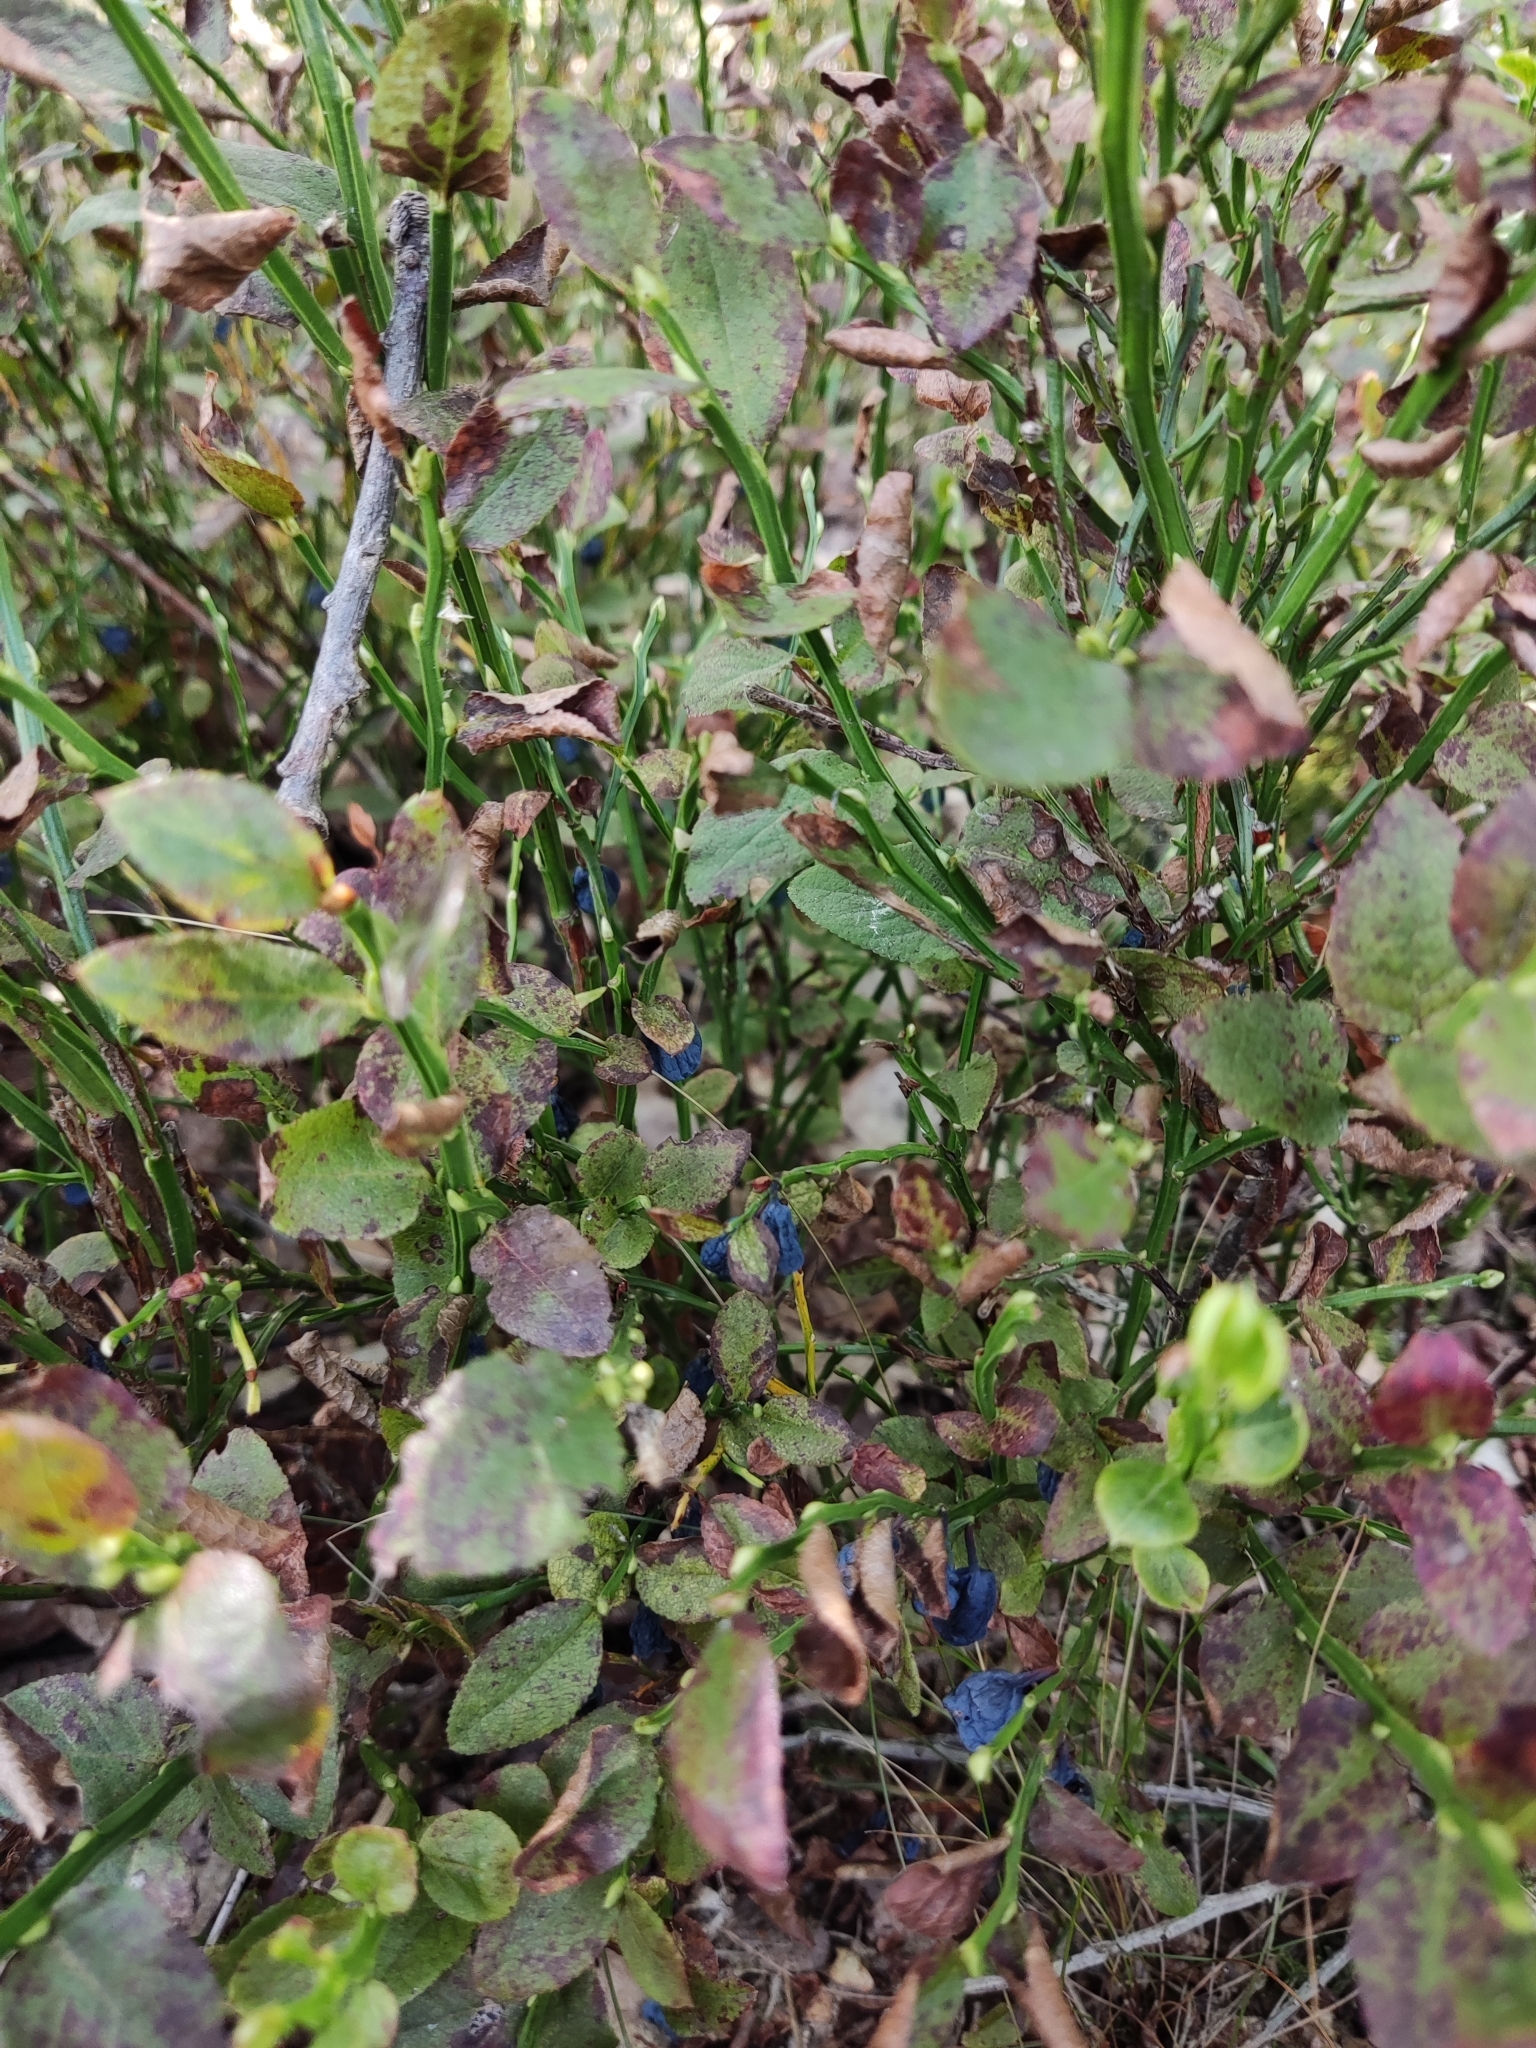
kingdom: Plantae
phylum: Tracheophyta
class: Magnoliopsida
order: Ericales
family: Ericaceae
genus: Vaccinium
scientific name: Vaccinium myrtillus
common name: Bilberry
